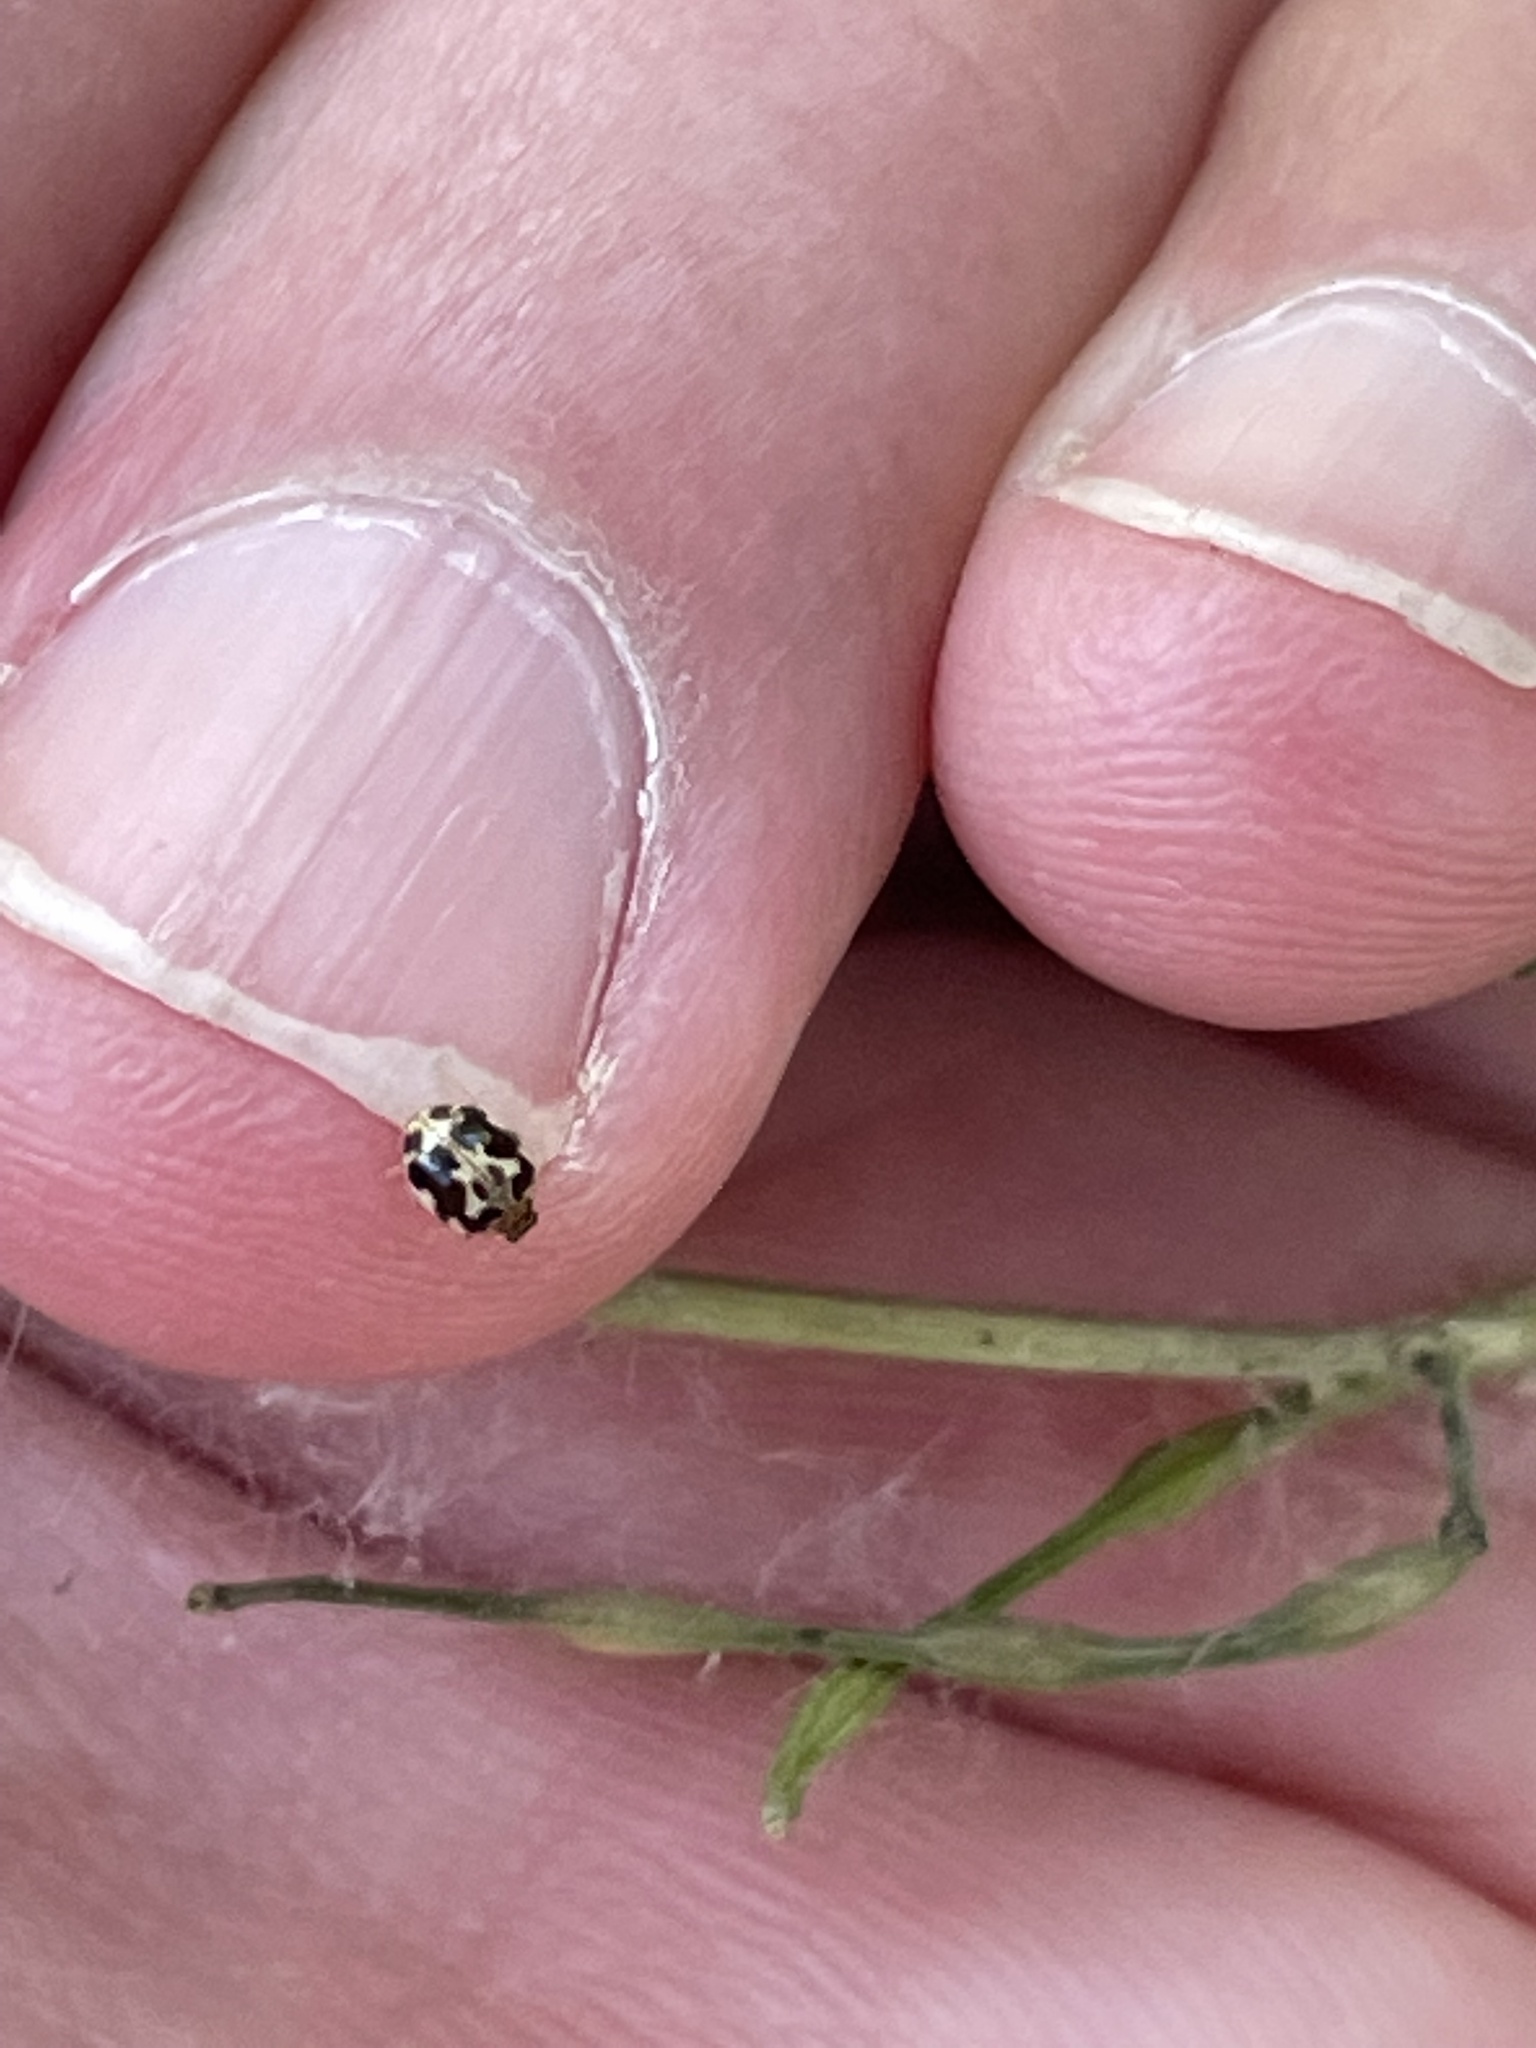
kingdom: Animalia
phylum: Arthropoda
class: Insecta
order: Coleoptera
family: Coccinellidae
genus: Psyllobora
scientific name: Psyllobora vigintimaculata
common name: Ladybird beetle
